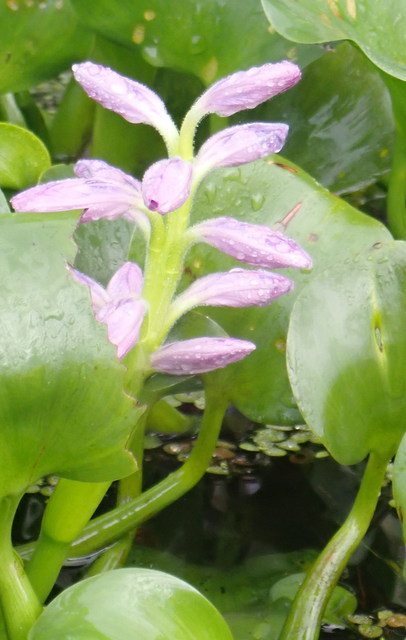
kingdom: Plantae
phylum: Tracheophyta
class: Liliopsida
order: Commelinales
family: Pontederiaceae
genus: Pontederia
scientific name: Pontederia crassipes
